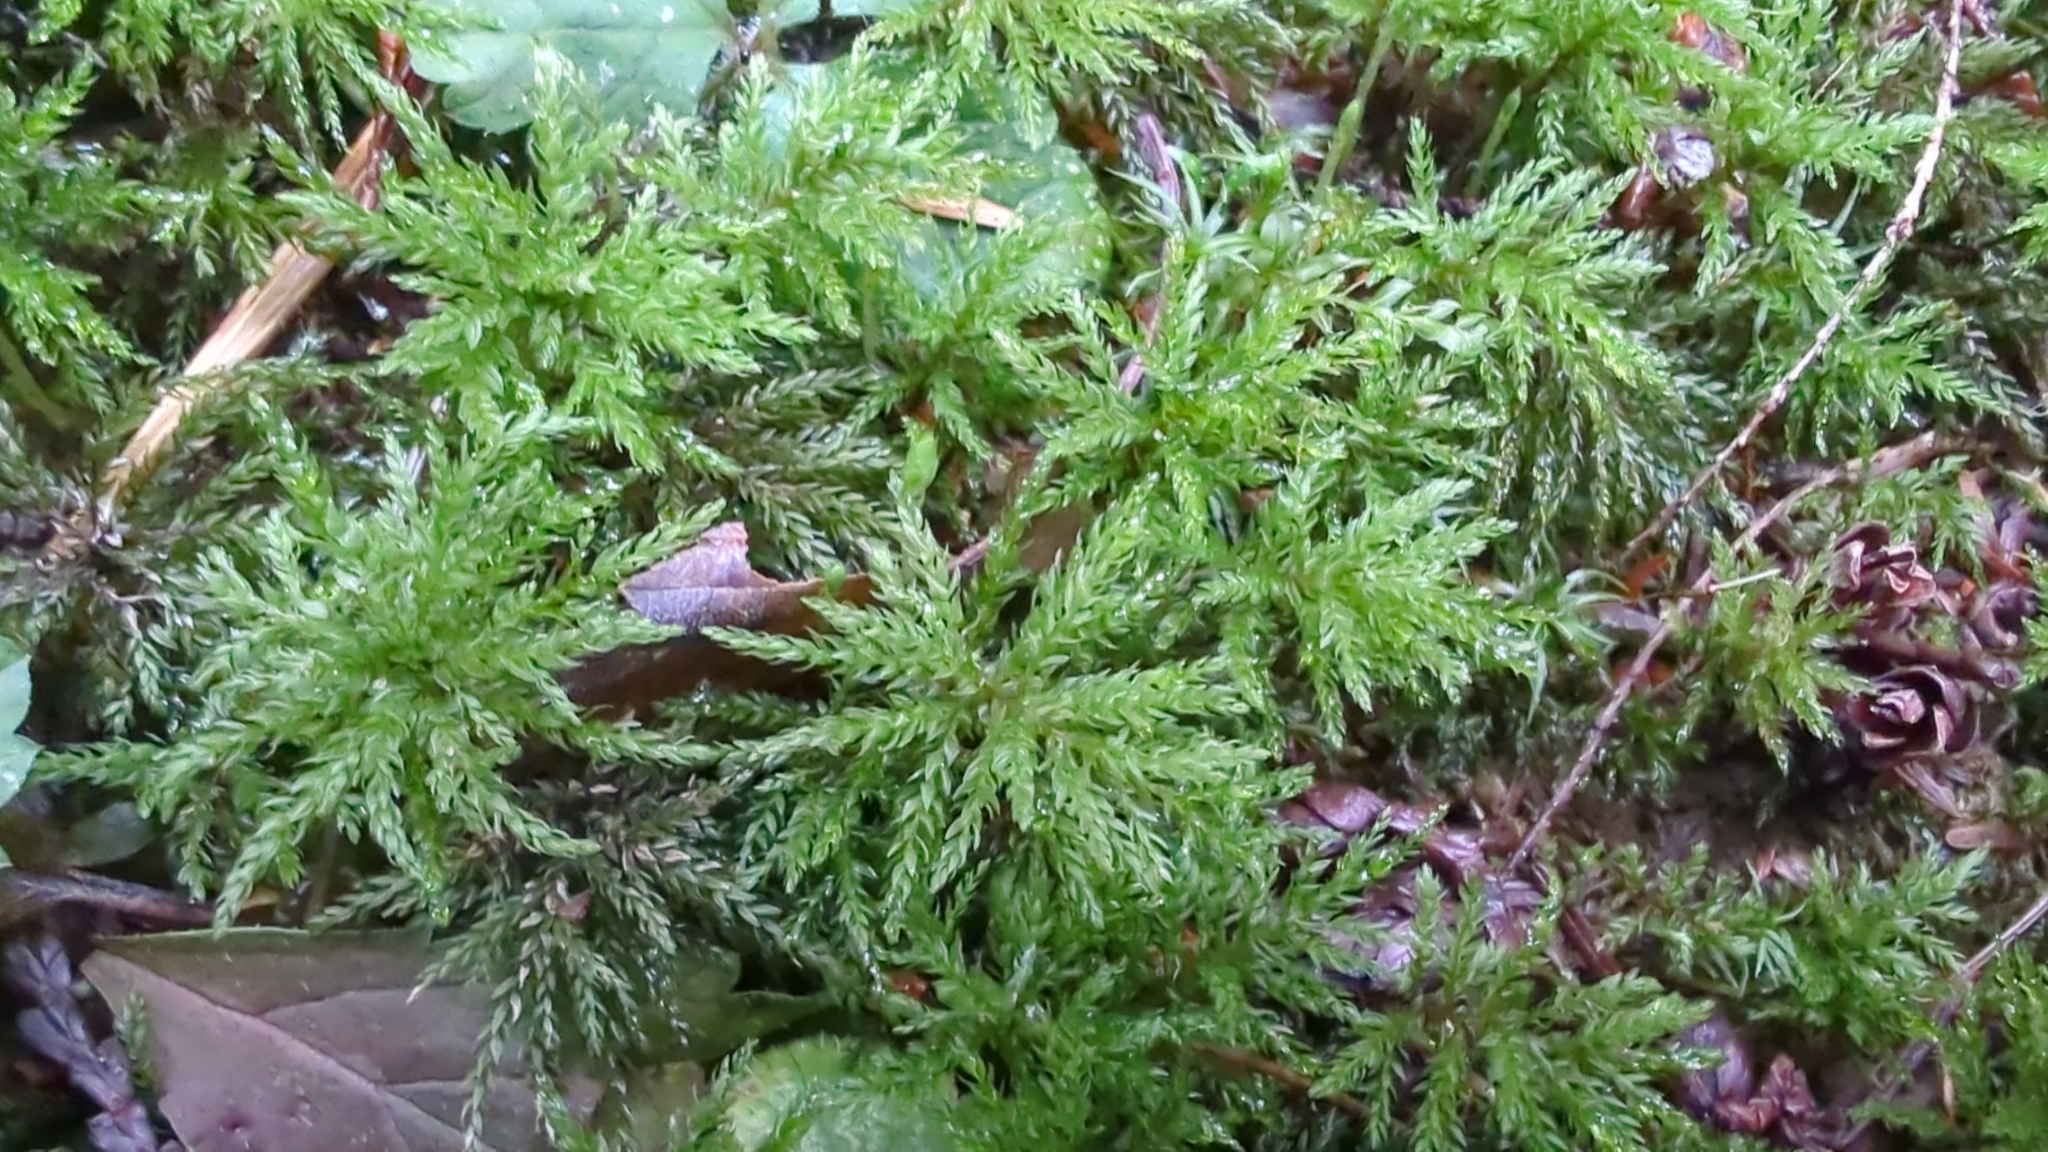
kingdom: Plantae
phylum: Bryophyta
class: Bryopsida
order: Bryales
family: Mniaceae
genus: Leucolepis
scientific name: Leucolepis acanthoneura
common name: Leucolepis umbrella moss
